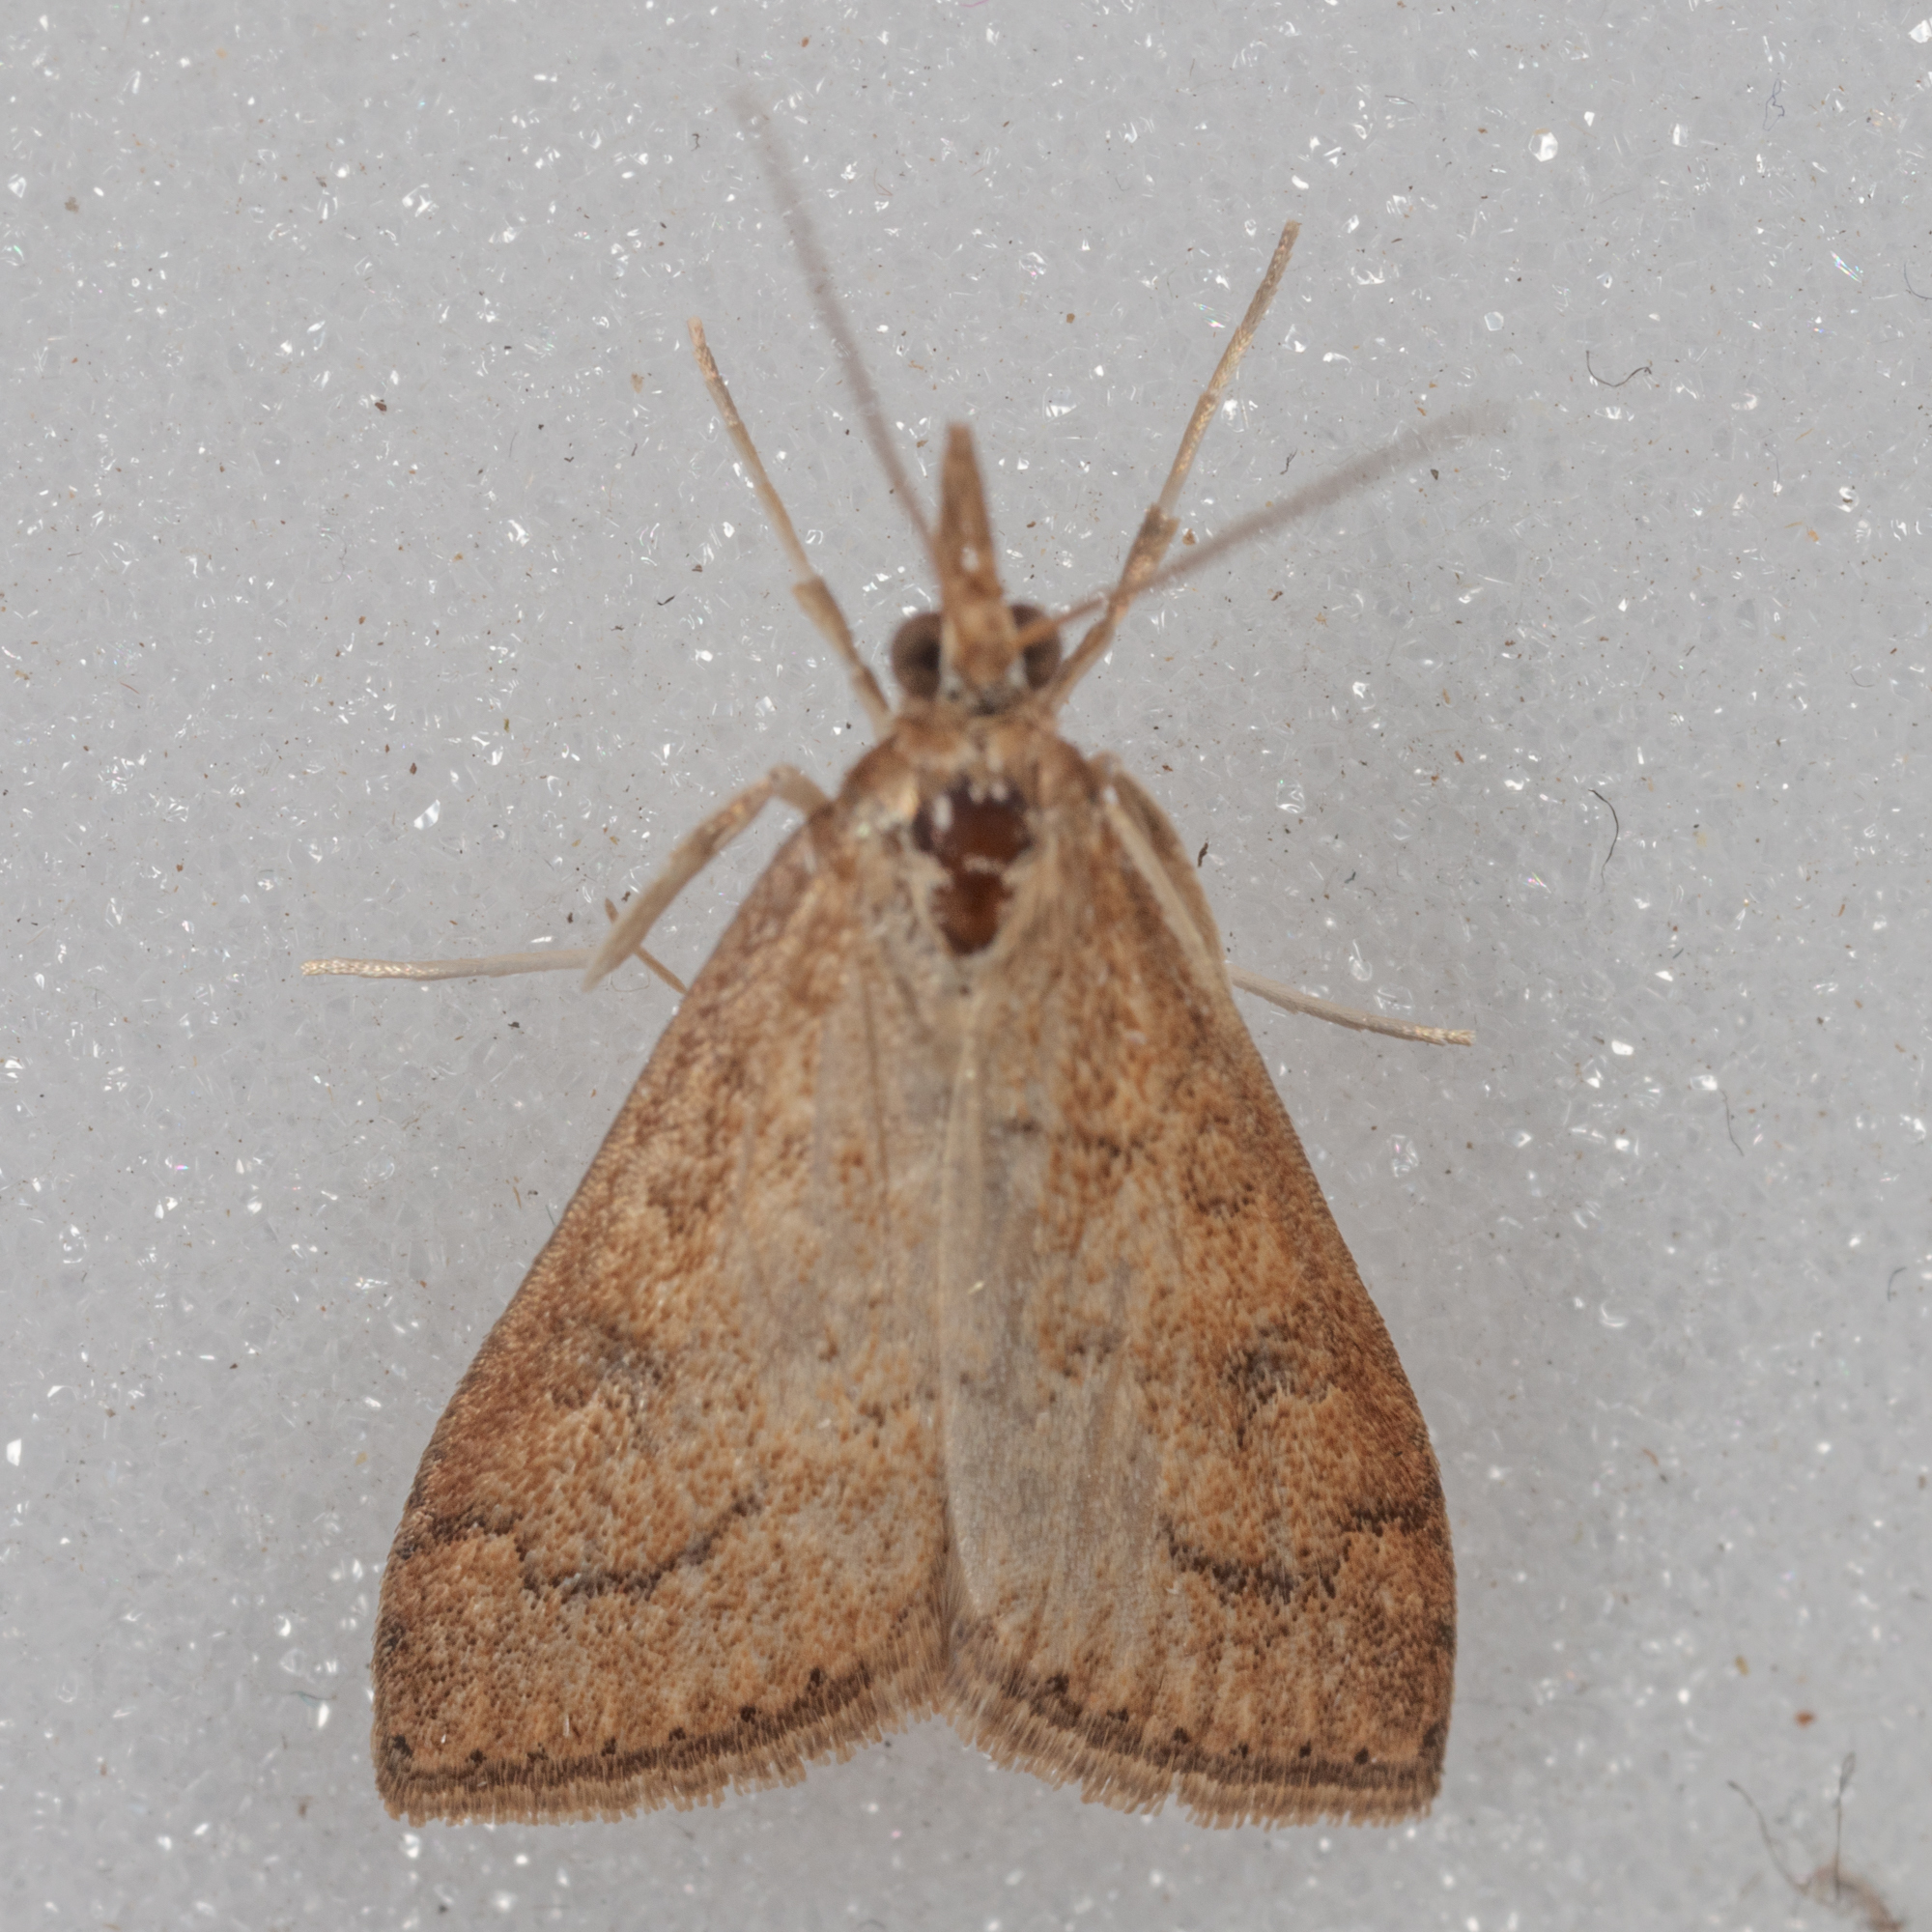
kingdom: Animalia
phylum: Arthropoda
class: Insecta
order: Lepidoptera
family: Crambidae
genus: Udea
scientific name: Udea rubigalis
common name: Celery leaftier moth
